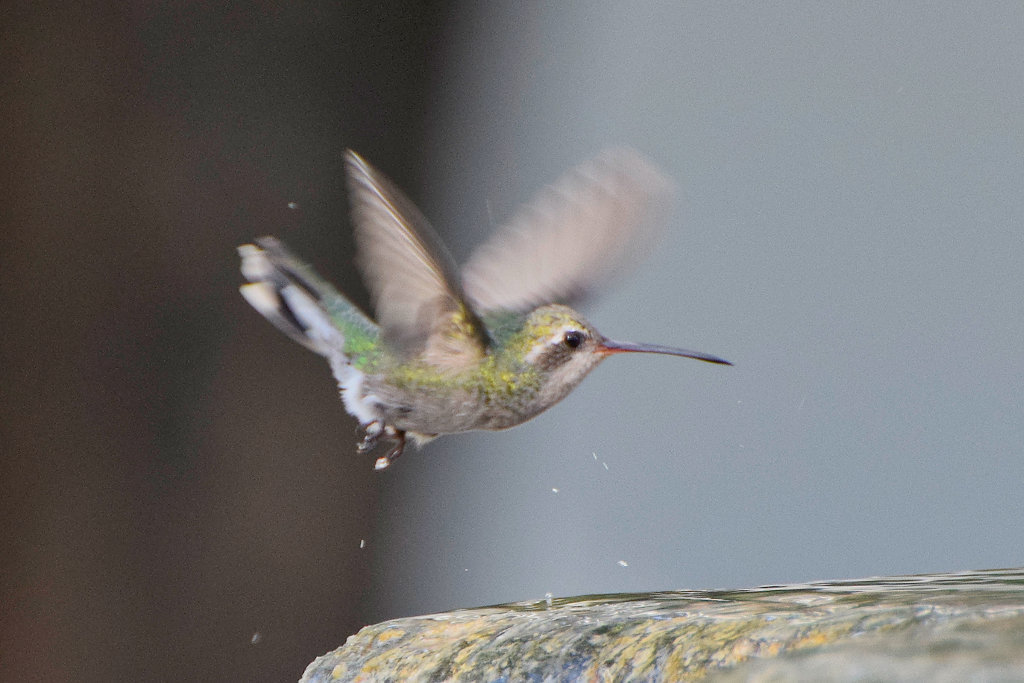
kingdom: Animalia
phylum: Chordata
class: Aves
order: Apodiformes
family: Trochilidae
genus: Cynanthus
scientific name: Cynanthus latirostris
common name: Broad-billed hummingbird
